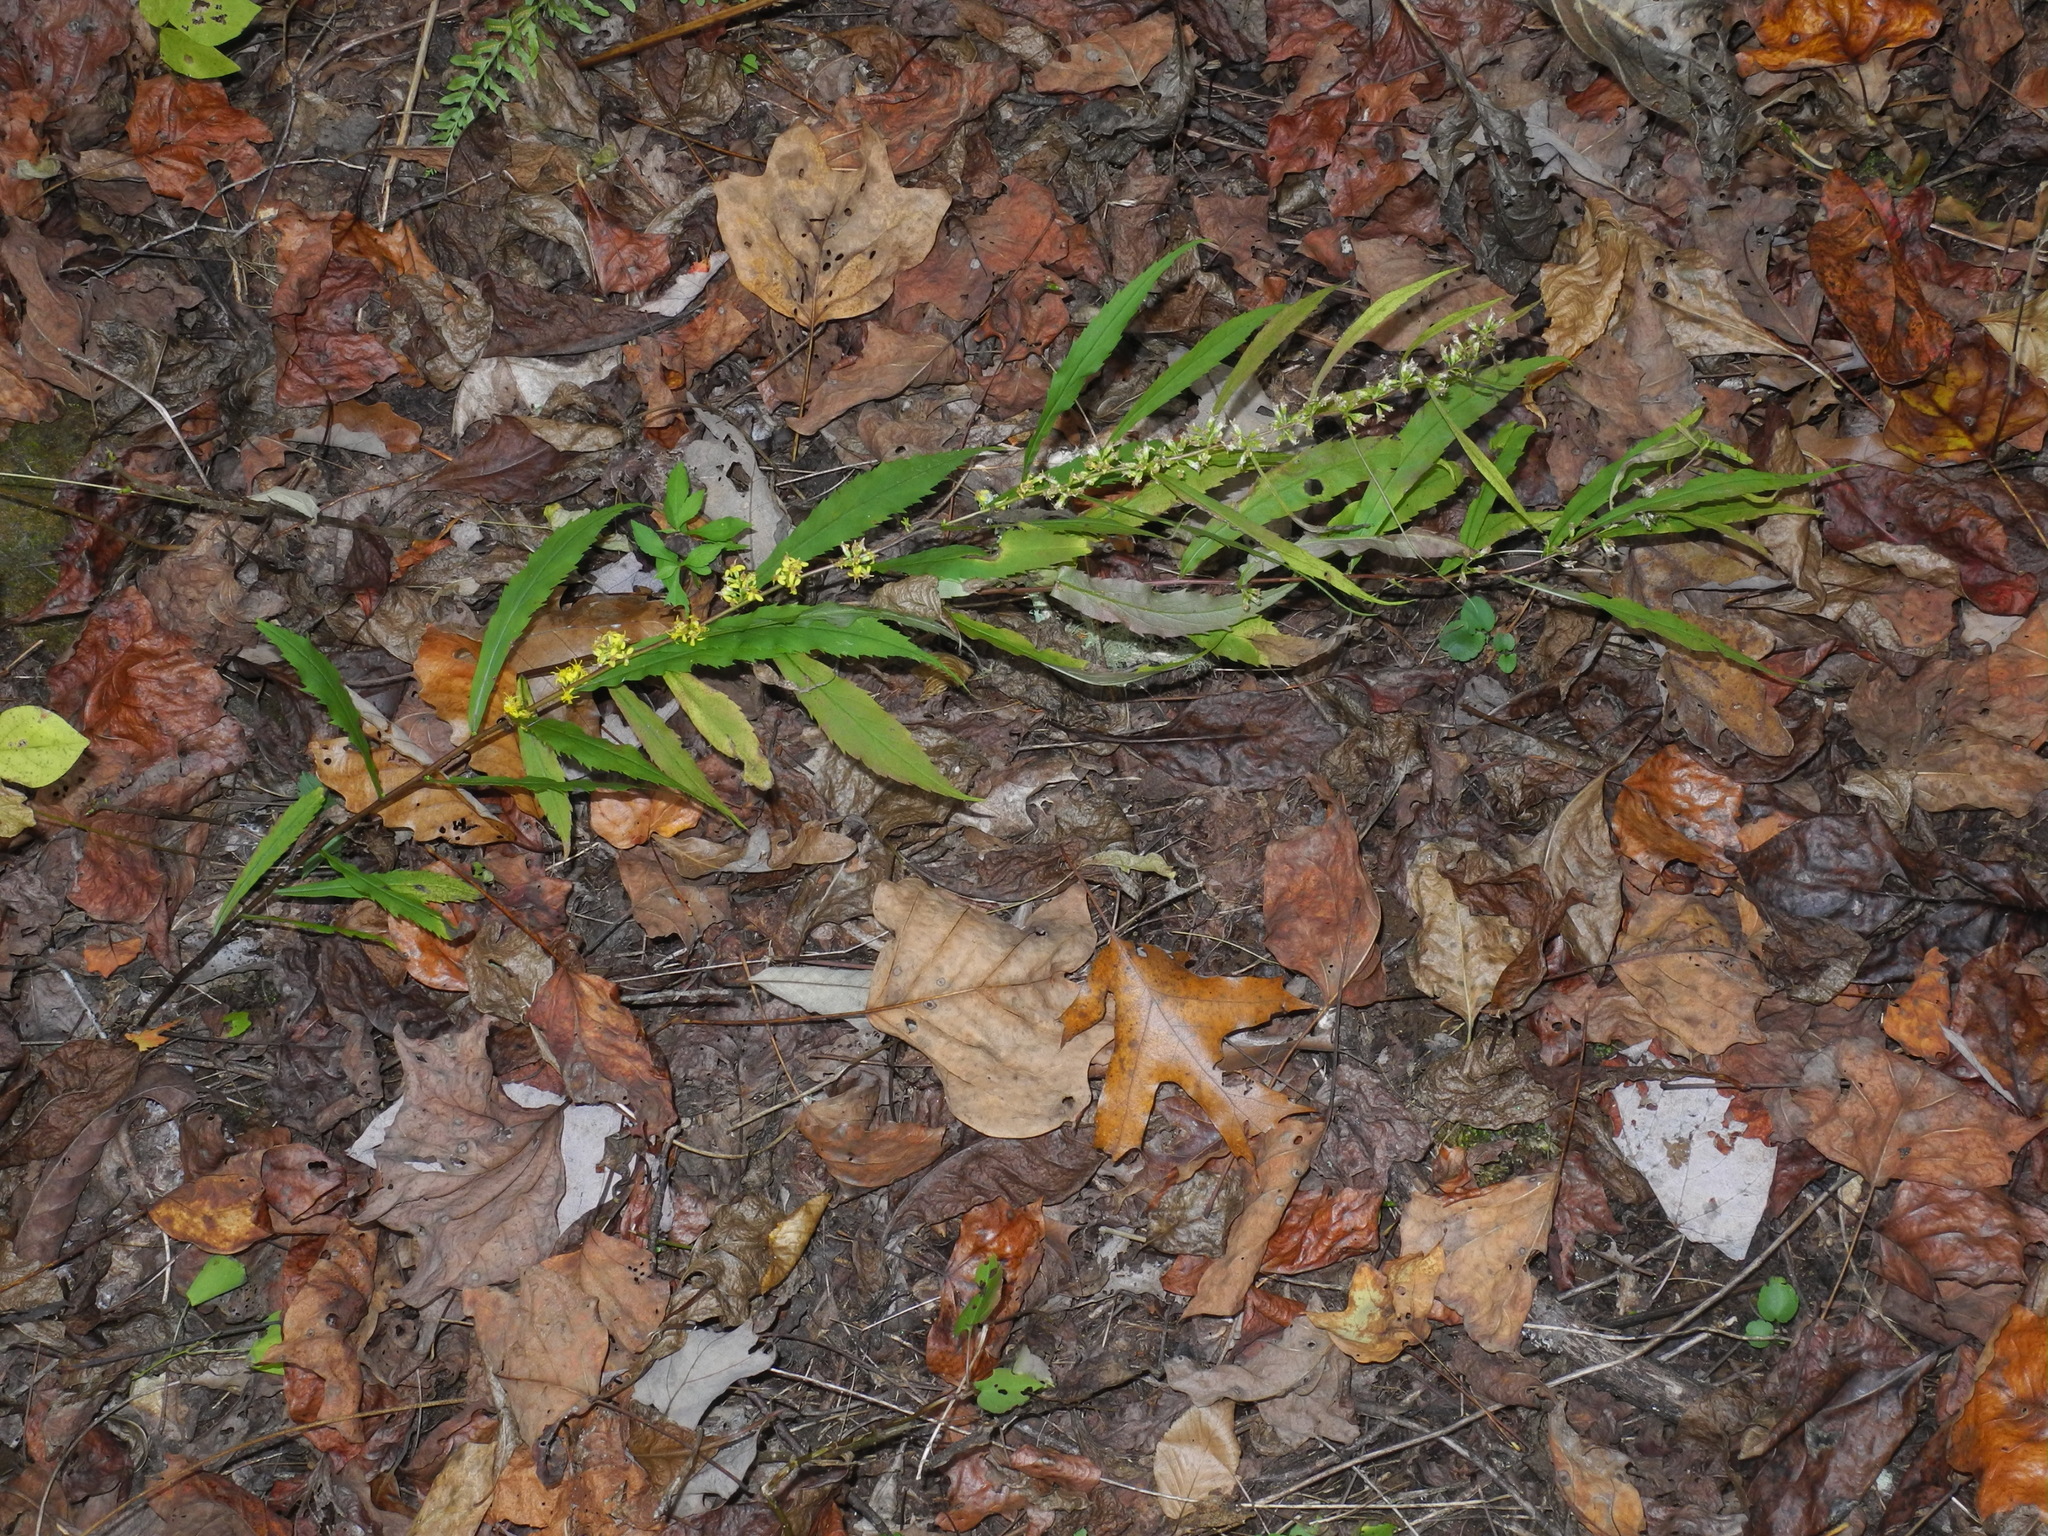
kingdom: Plantae
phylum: Tracheophyta
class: Magnoliopsida
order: Asterales
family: Asteraceae
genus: Solidago
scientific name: Solidago caesia
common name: Woodland goldenrod
